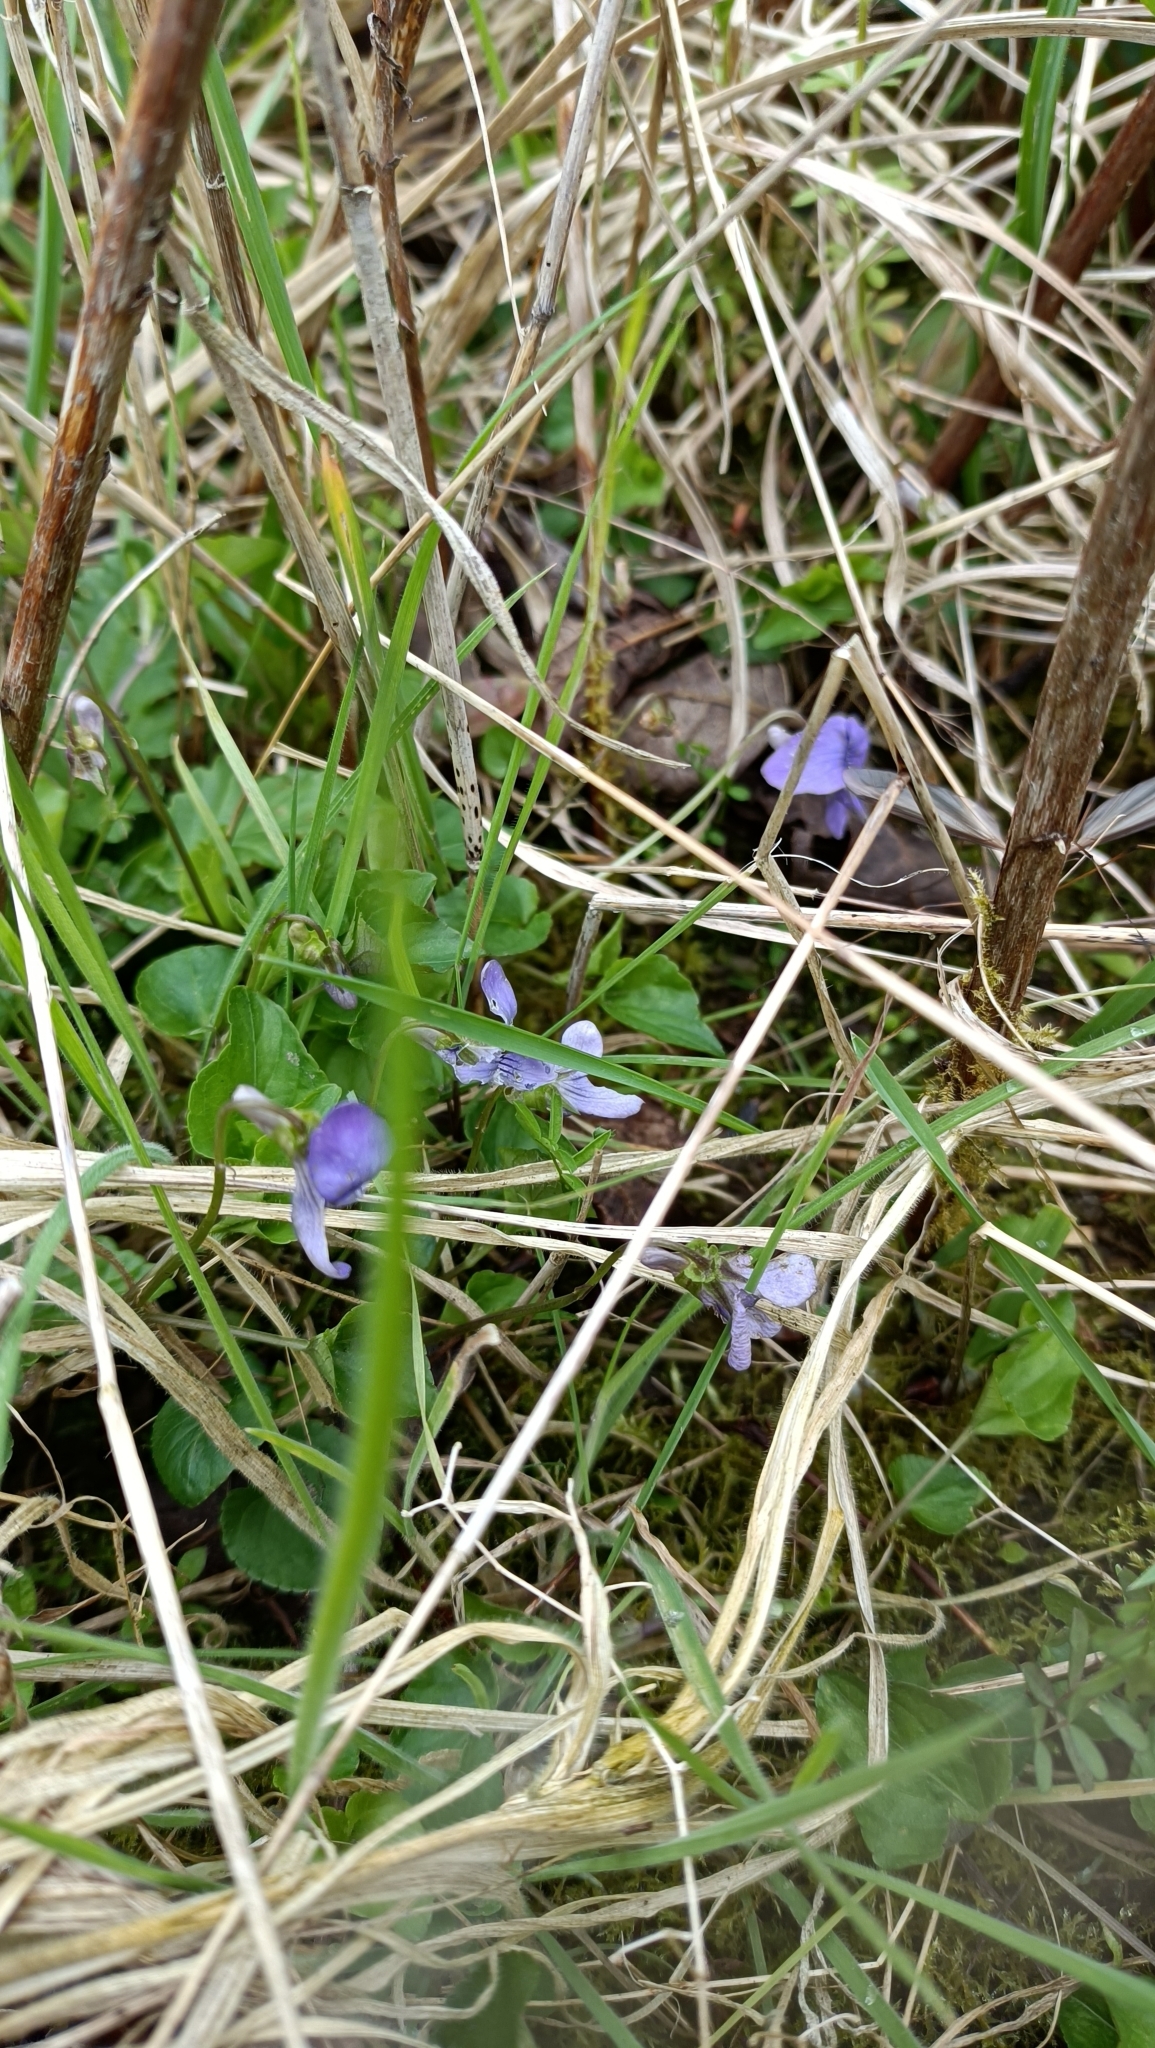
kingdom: Plantae
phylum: Tracheophyta
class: Magnoliopsida
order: Malpighiales
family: Violaceae
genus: Viola
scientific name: Viola riviniana
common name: Common dog-violet
